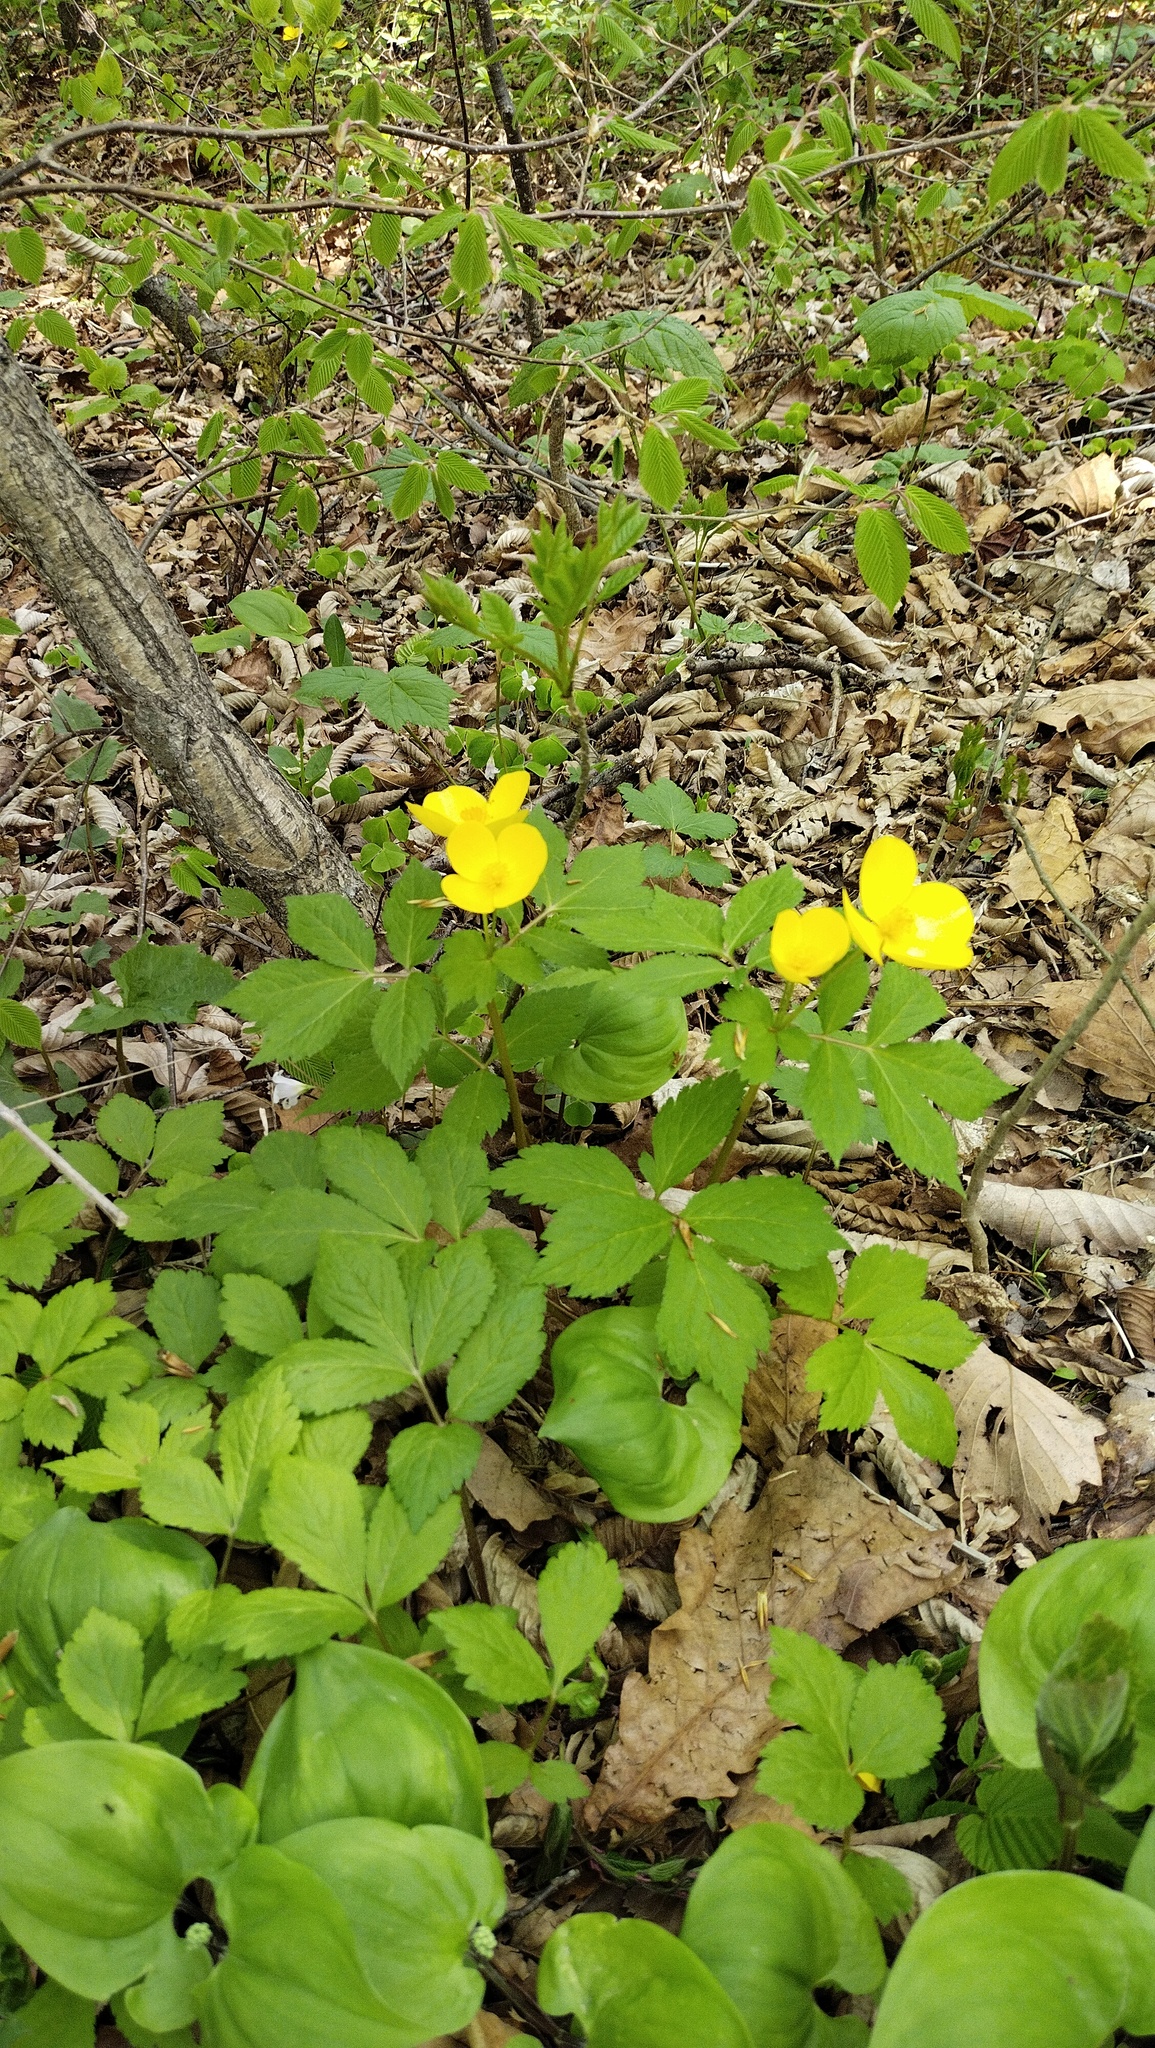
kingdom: Plantae
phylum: Tracheophyta
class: Magnoliopsida
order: Ranunculales
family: Papaveraceae
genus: Hylomecon
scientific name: Hylomecon vernalis
